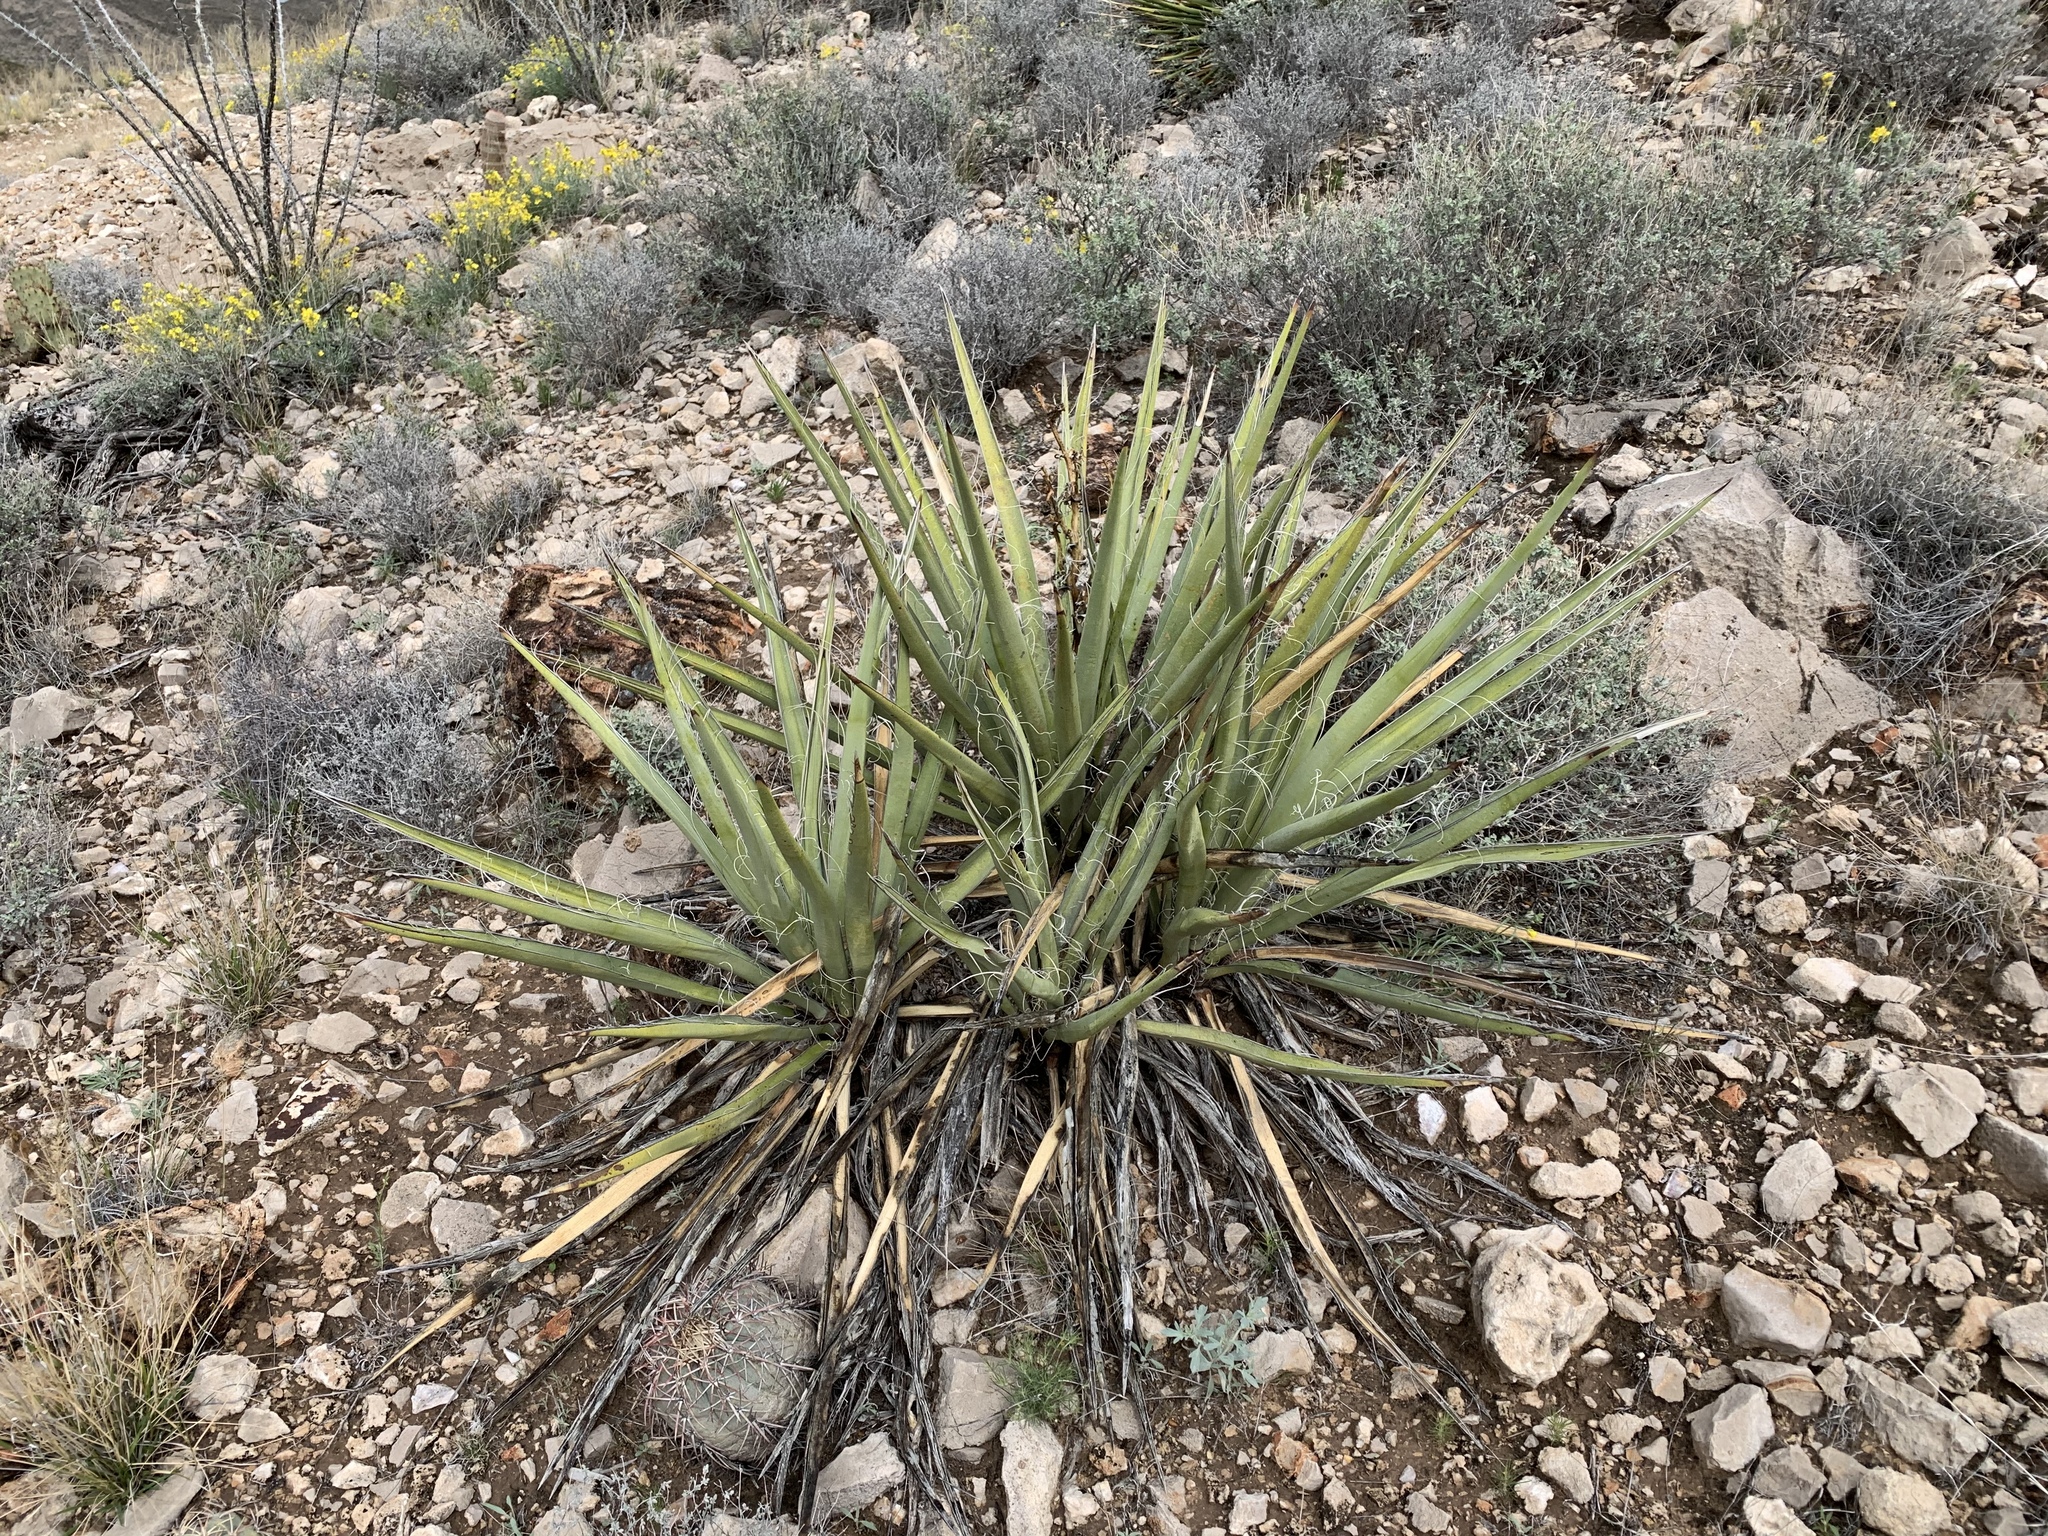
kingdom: Plantae
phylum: Tracheophyta
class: Liliopsida
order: Asparagales
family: Asparagaceae
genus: Yucca
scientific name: Yucca baccata
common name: Banana yucca
